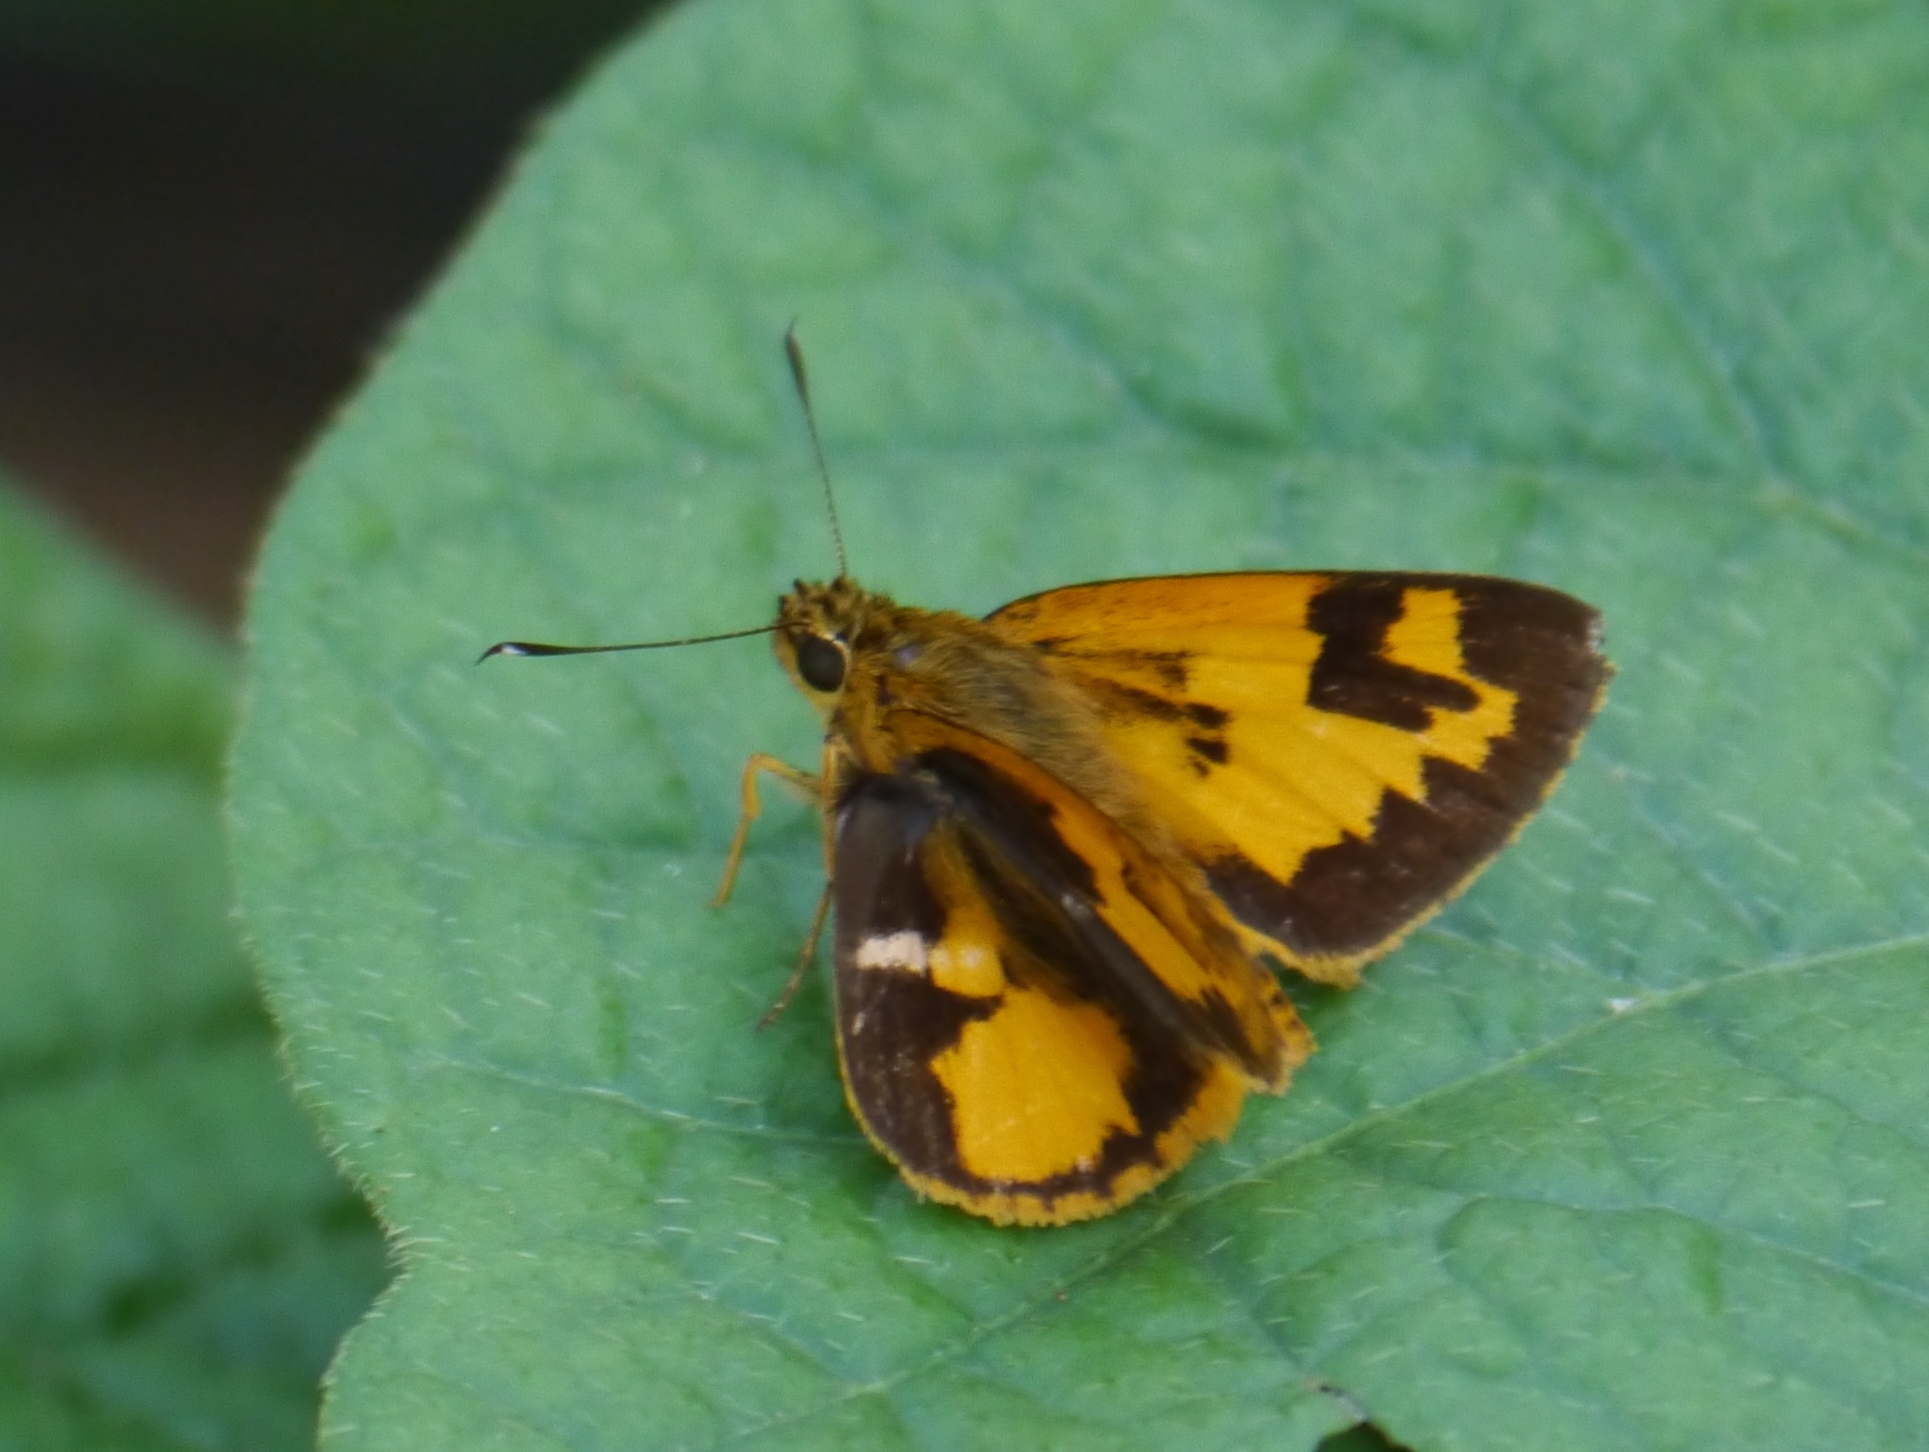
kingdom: Animalia
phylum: Arthropoda
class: Insecta
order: Lepidoptera
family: Hesperiidae
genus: Pardaleodes
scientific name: Pardaleodes incerta
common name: Savanna pathfinder
